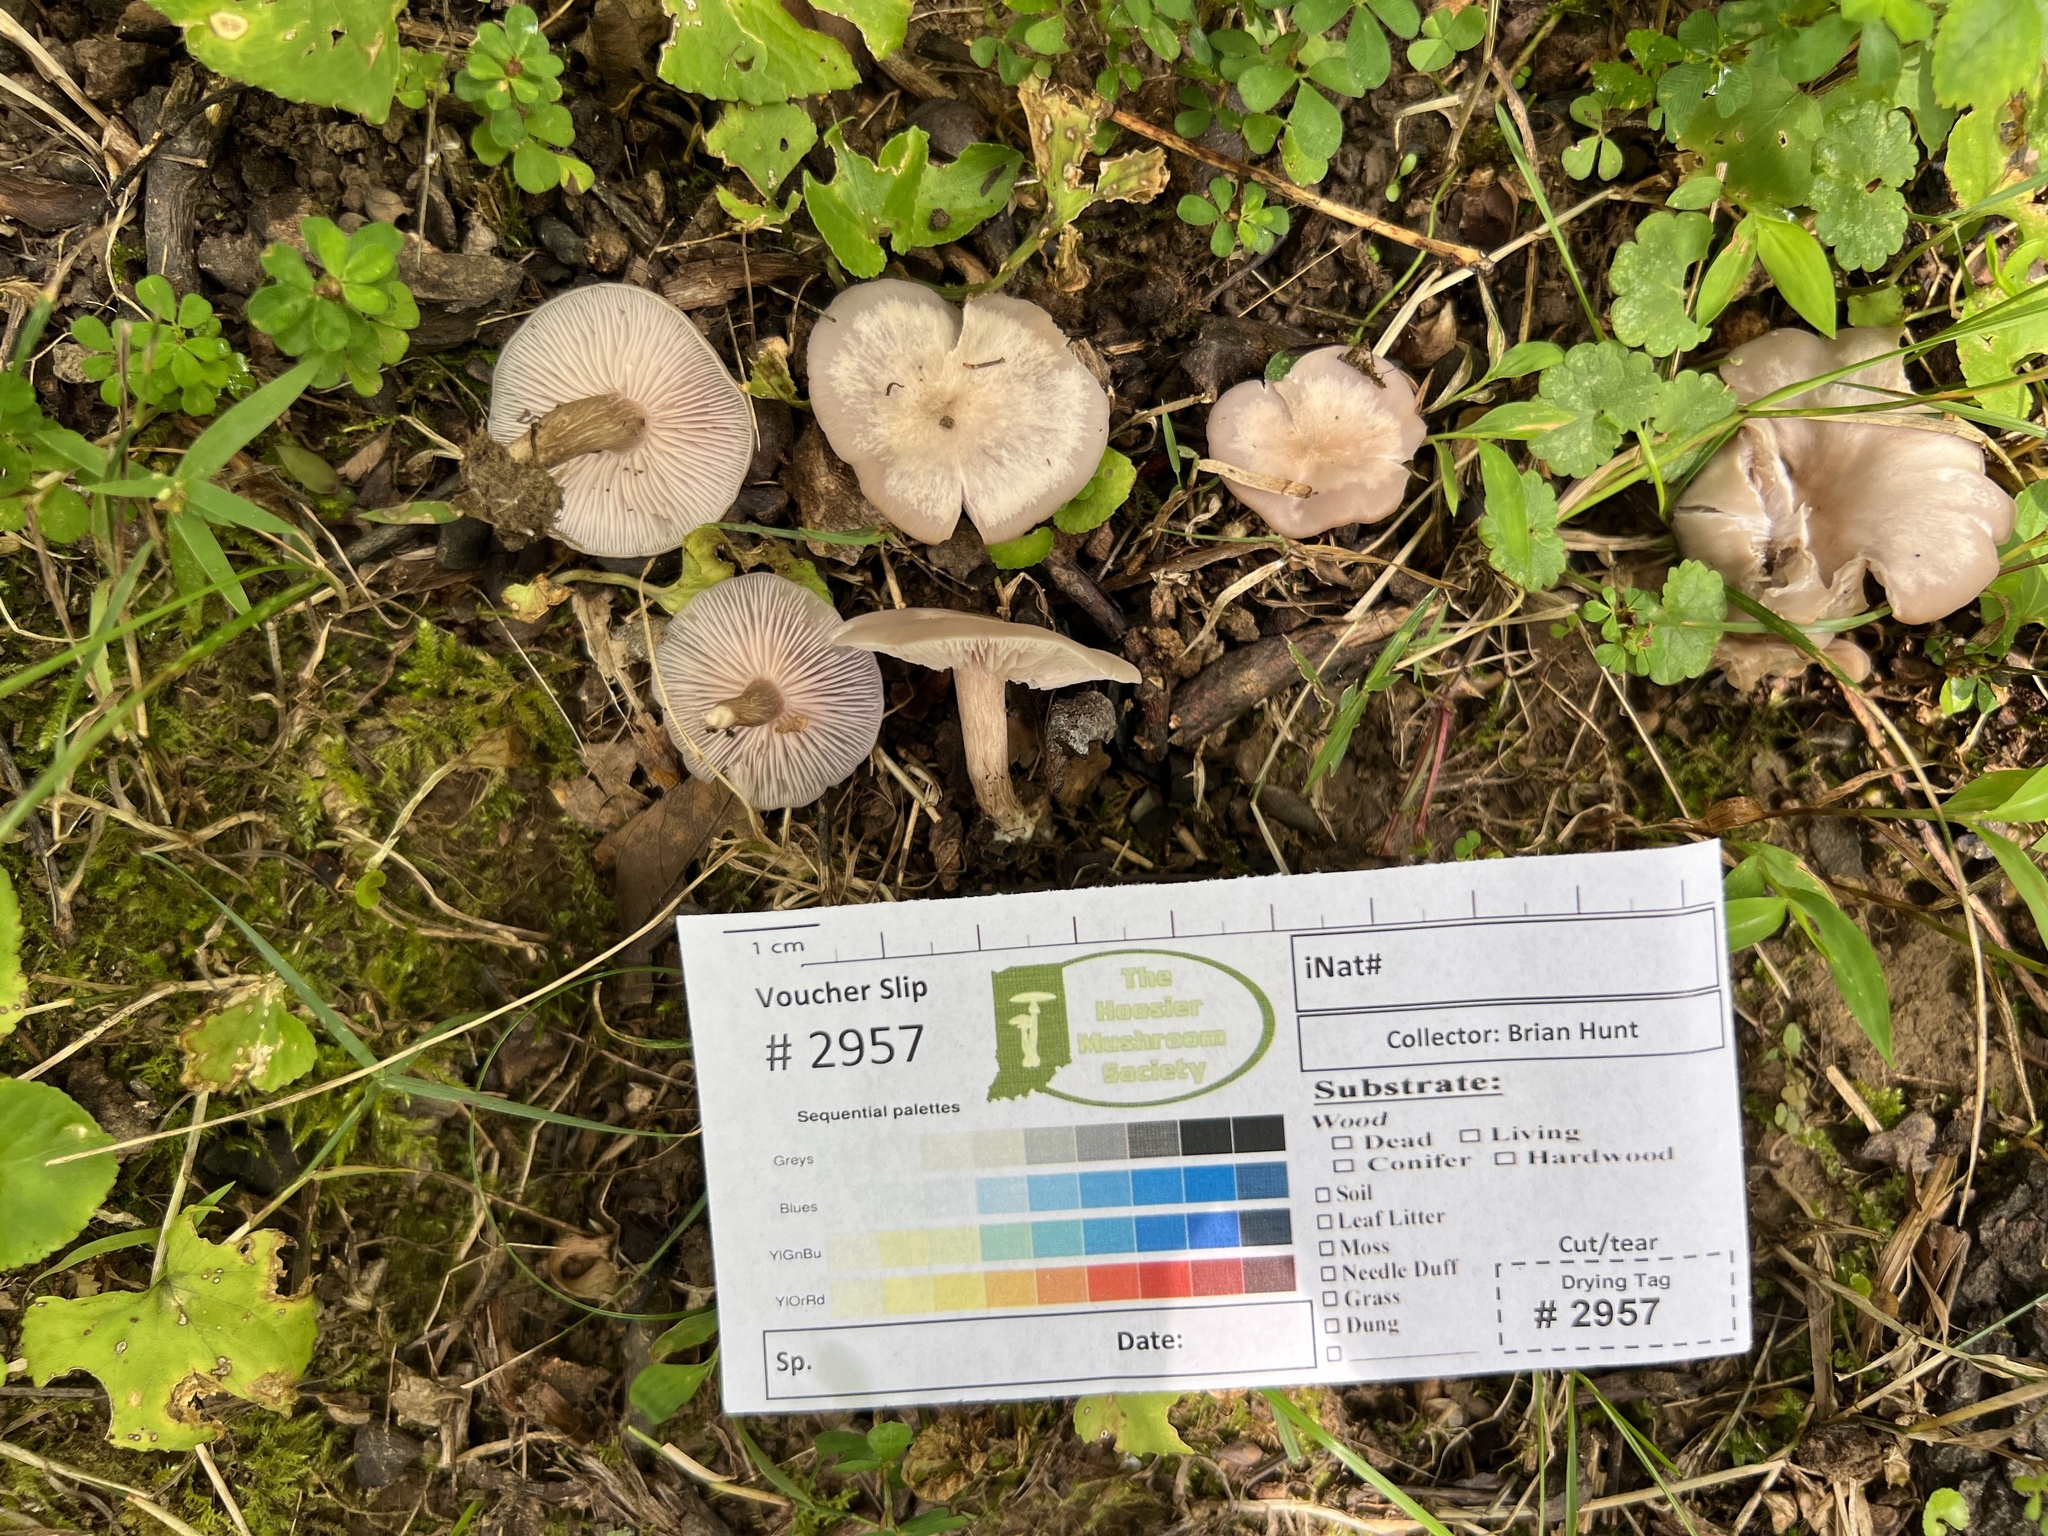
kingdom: Fungi
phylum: Basidiomycota
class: Agaricomycetes
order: Agaricales
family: Tricholomataceae
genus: Collybia
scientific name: Collybia
